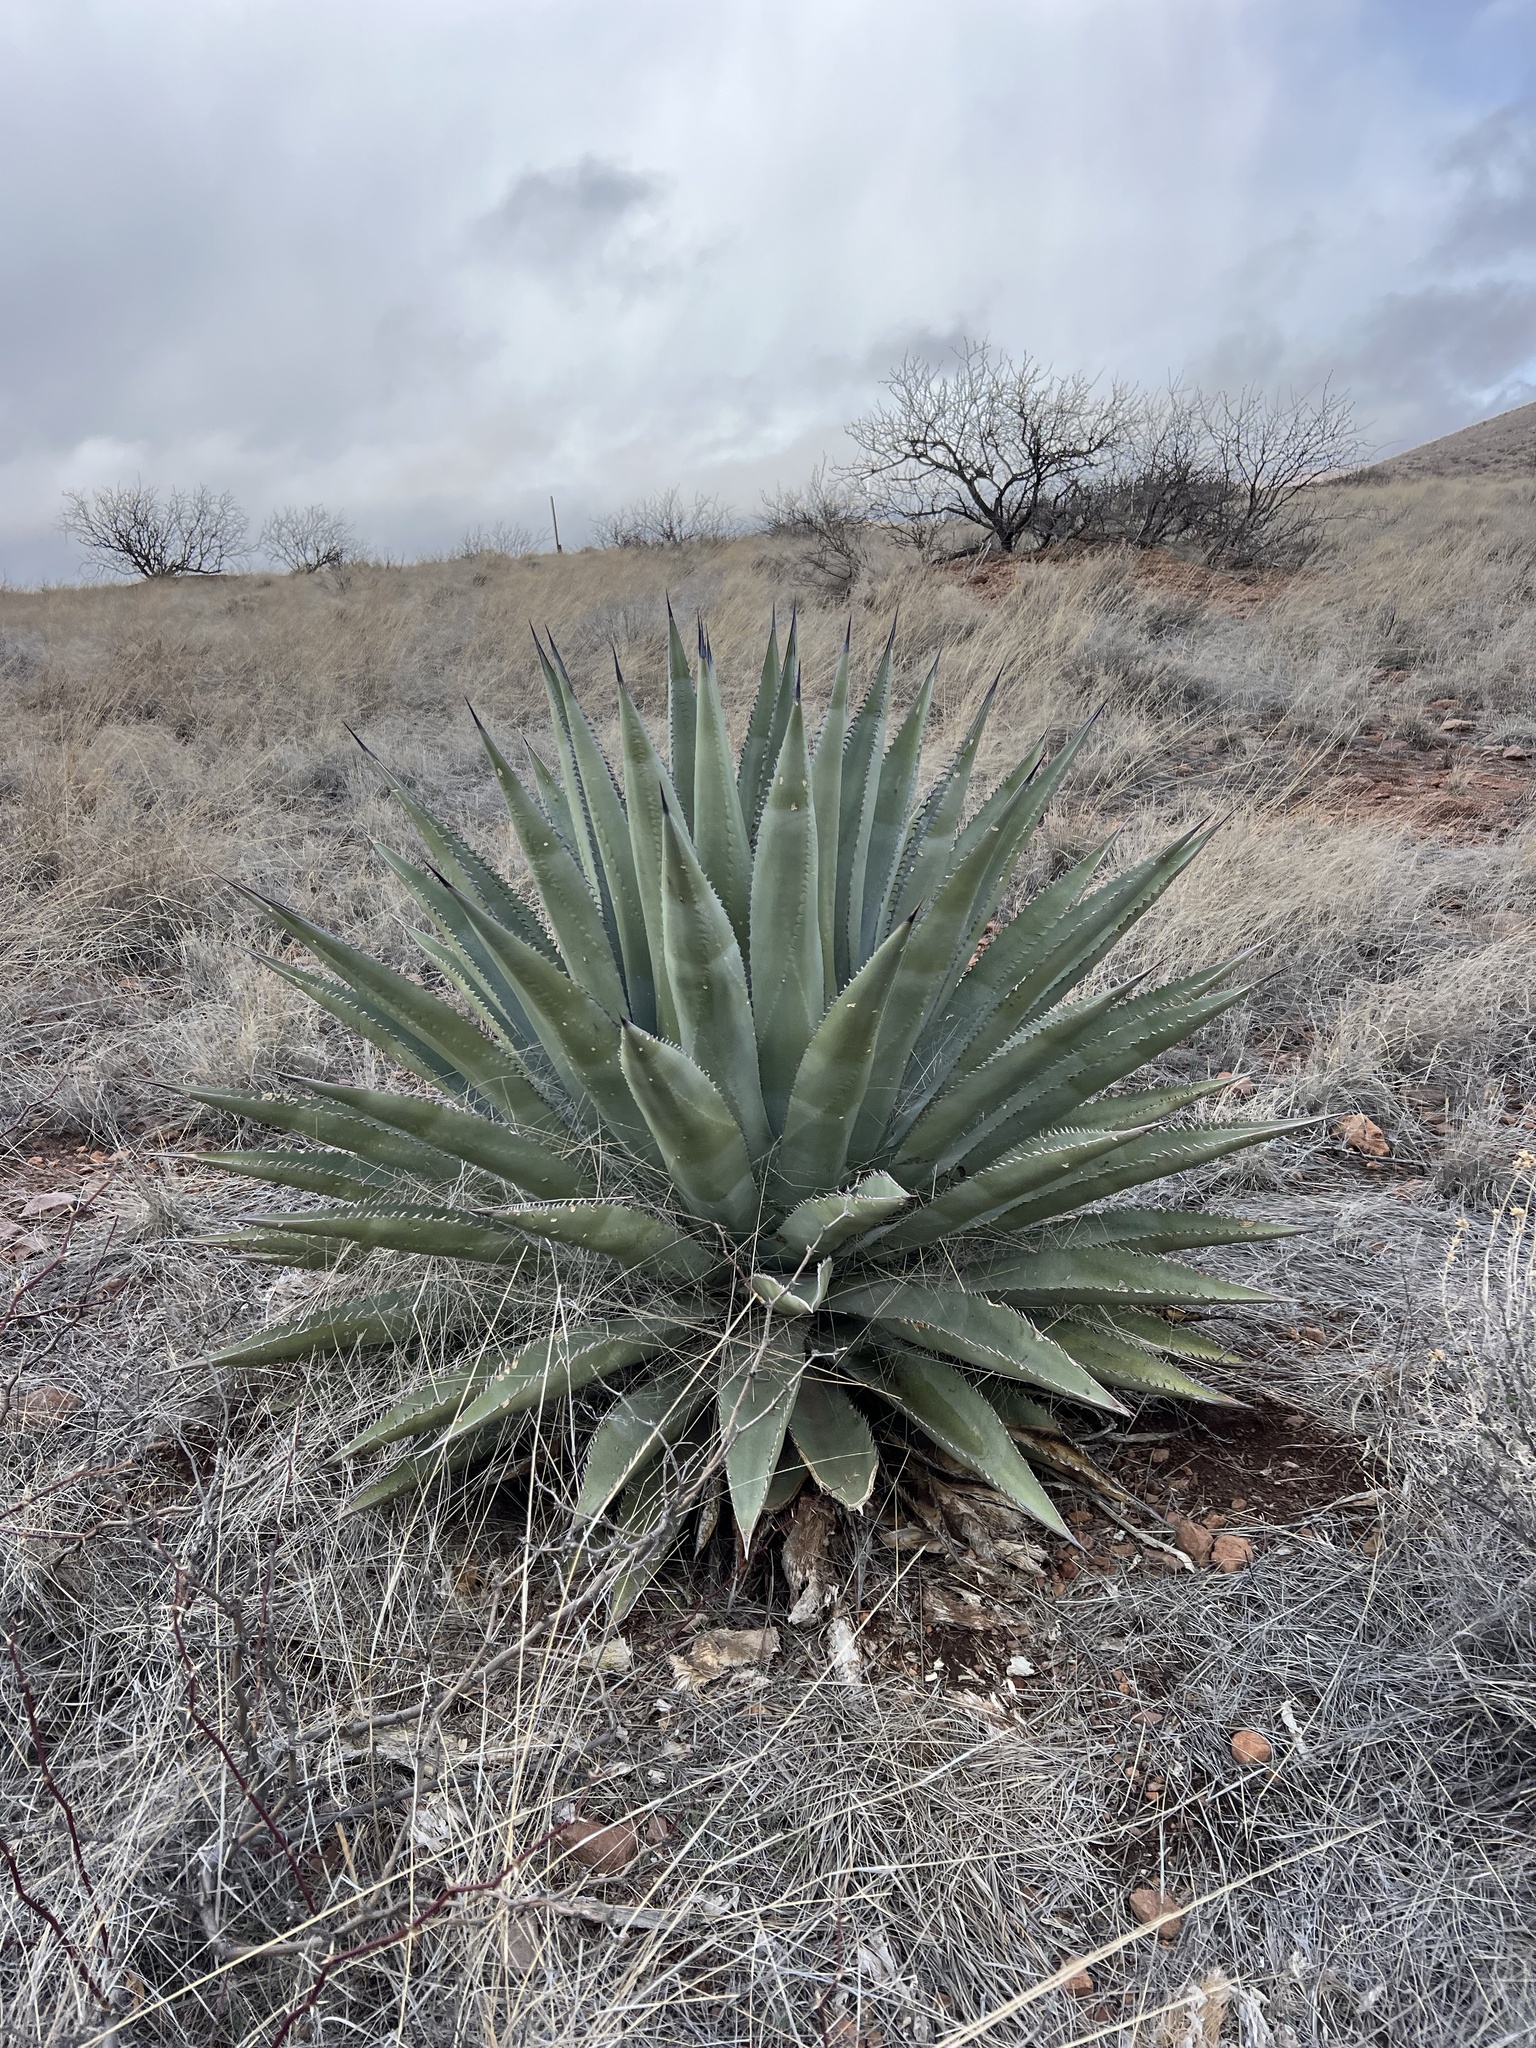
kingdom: Plantae
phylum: Tracheophyta
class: Liliopsida
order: Asparagales
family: Asparagaceae
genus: Agave
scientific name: Agave palmeri
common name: Palmer agave
